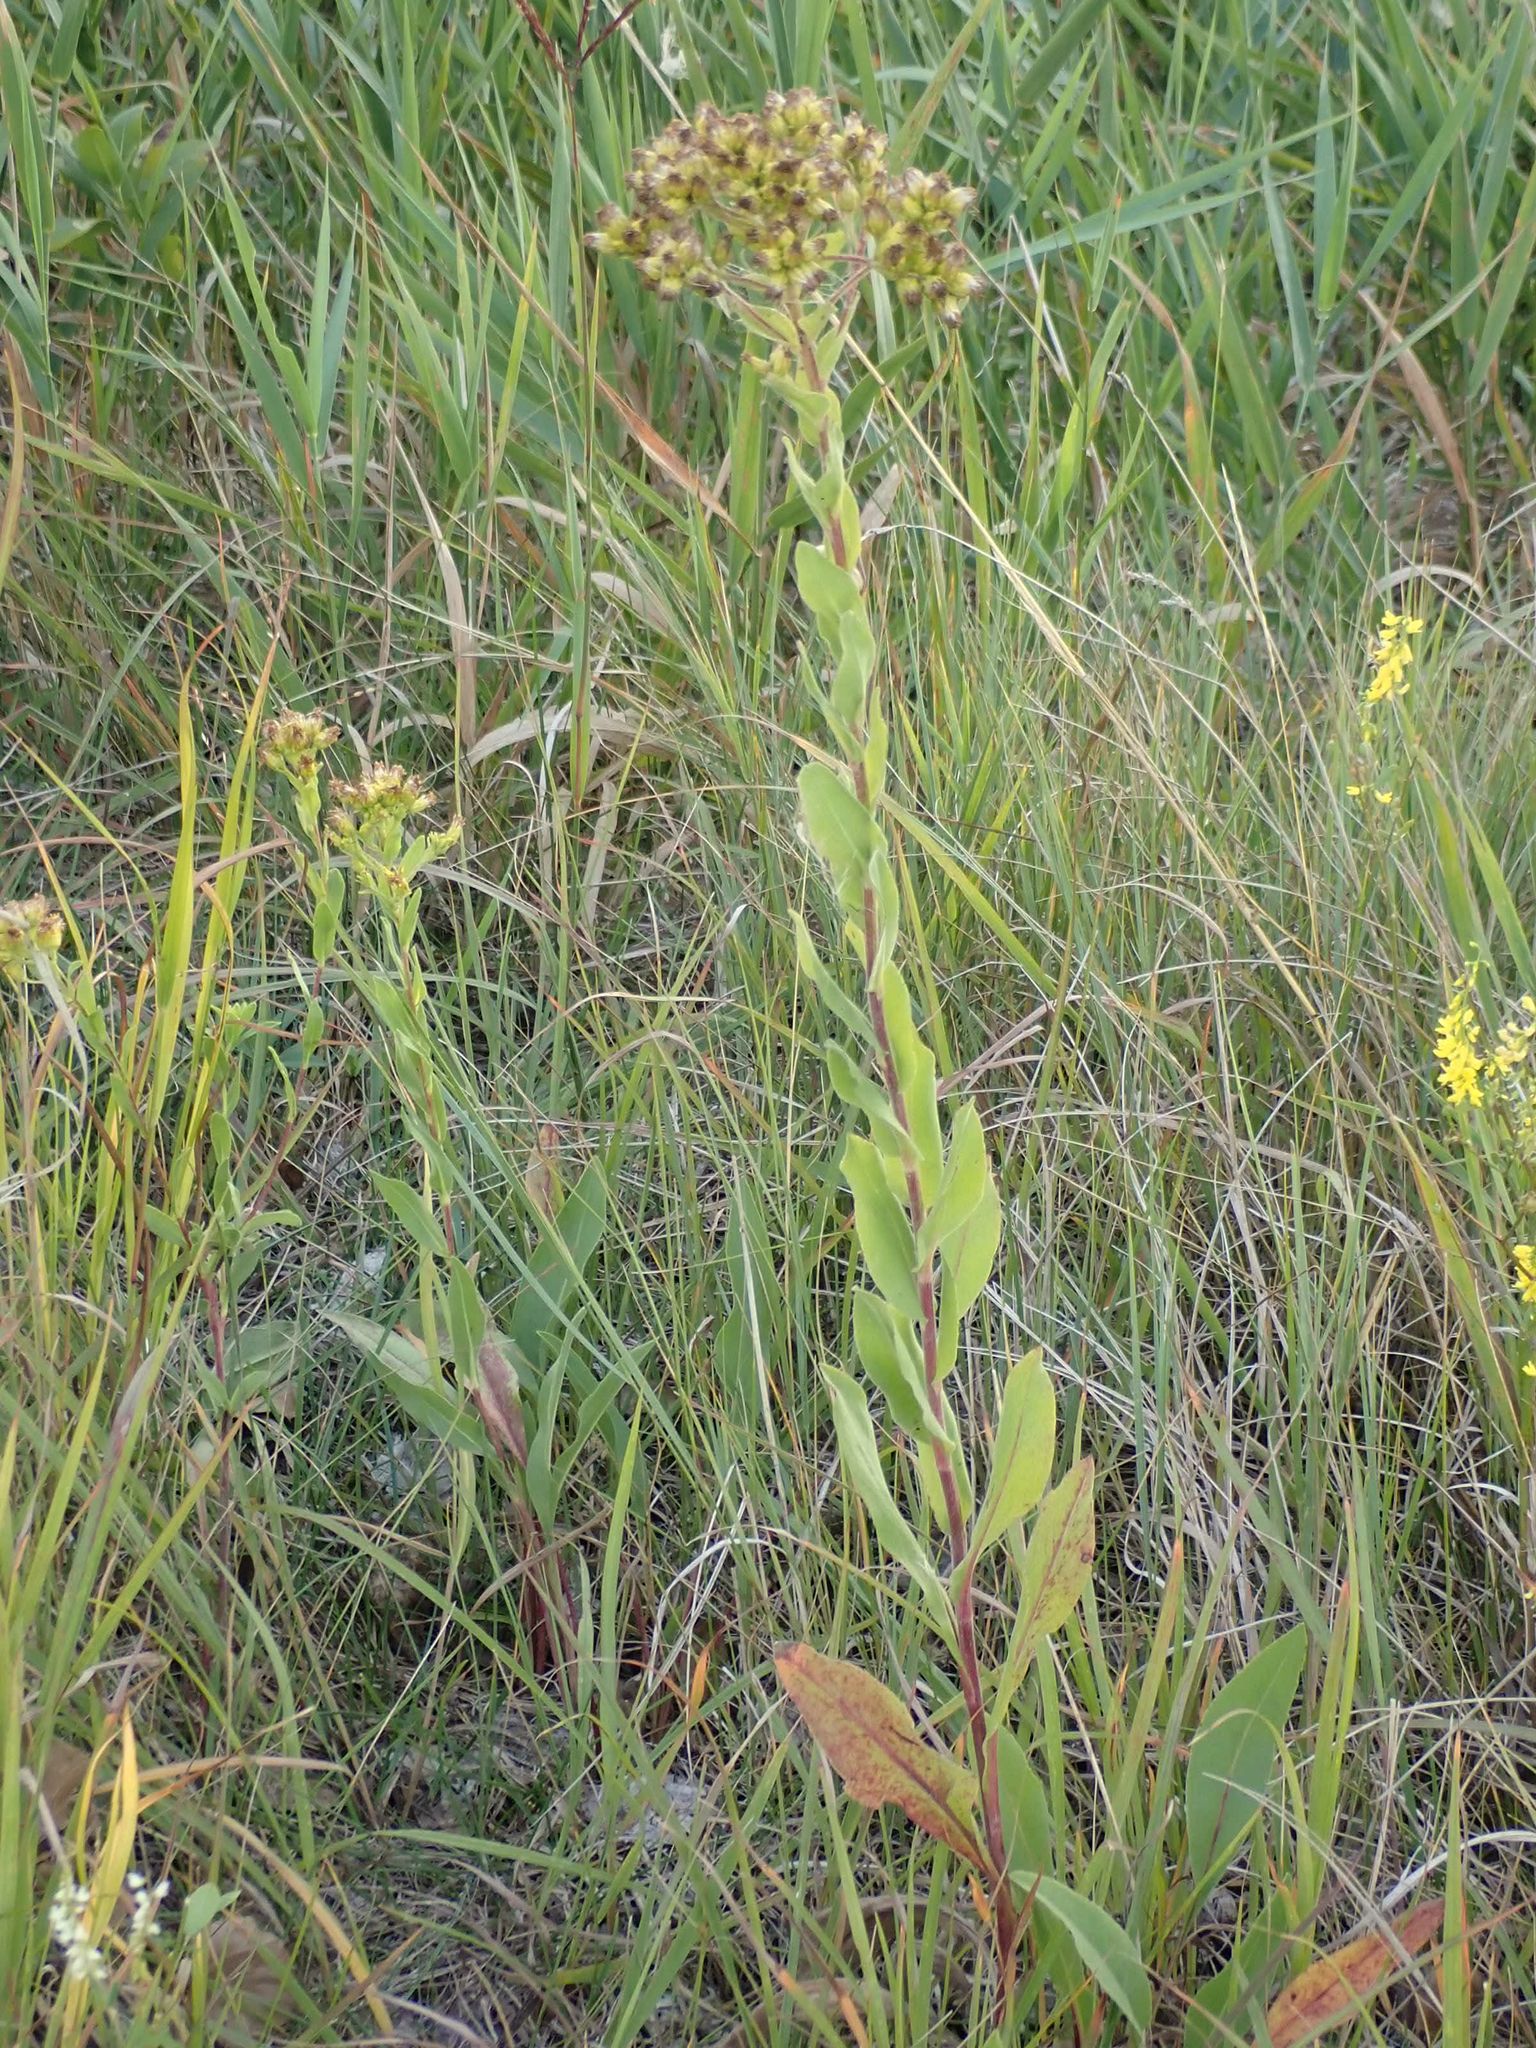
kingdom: Plantae
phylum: Tracheophyta
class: Magnoliopsida
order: Asterales
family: Asteraceae
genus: Solidago
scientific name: Solidago rigida
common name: Rigid goldenrod
